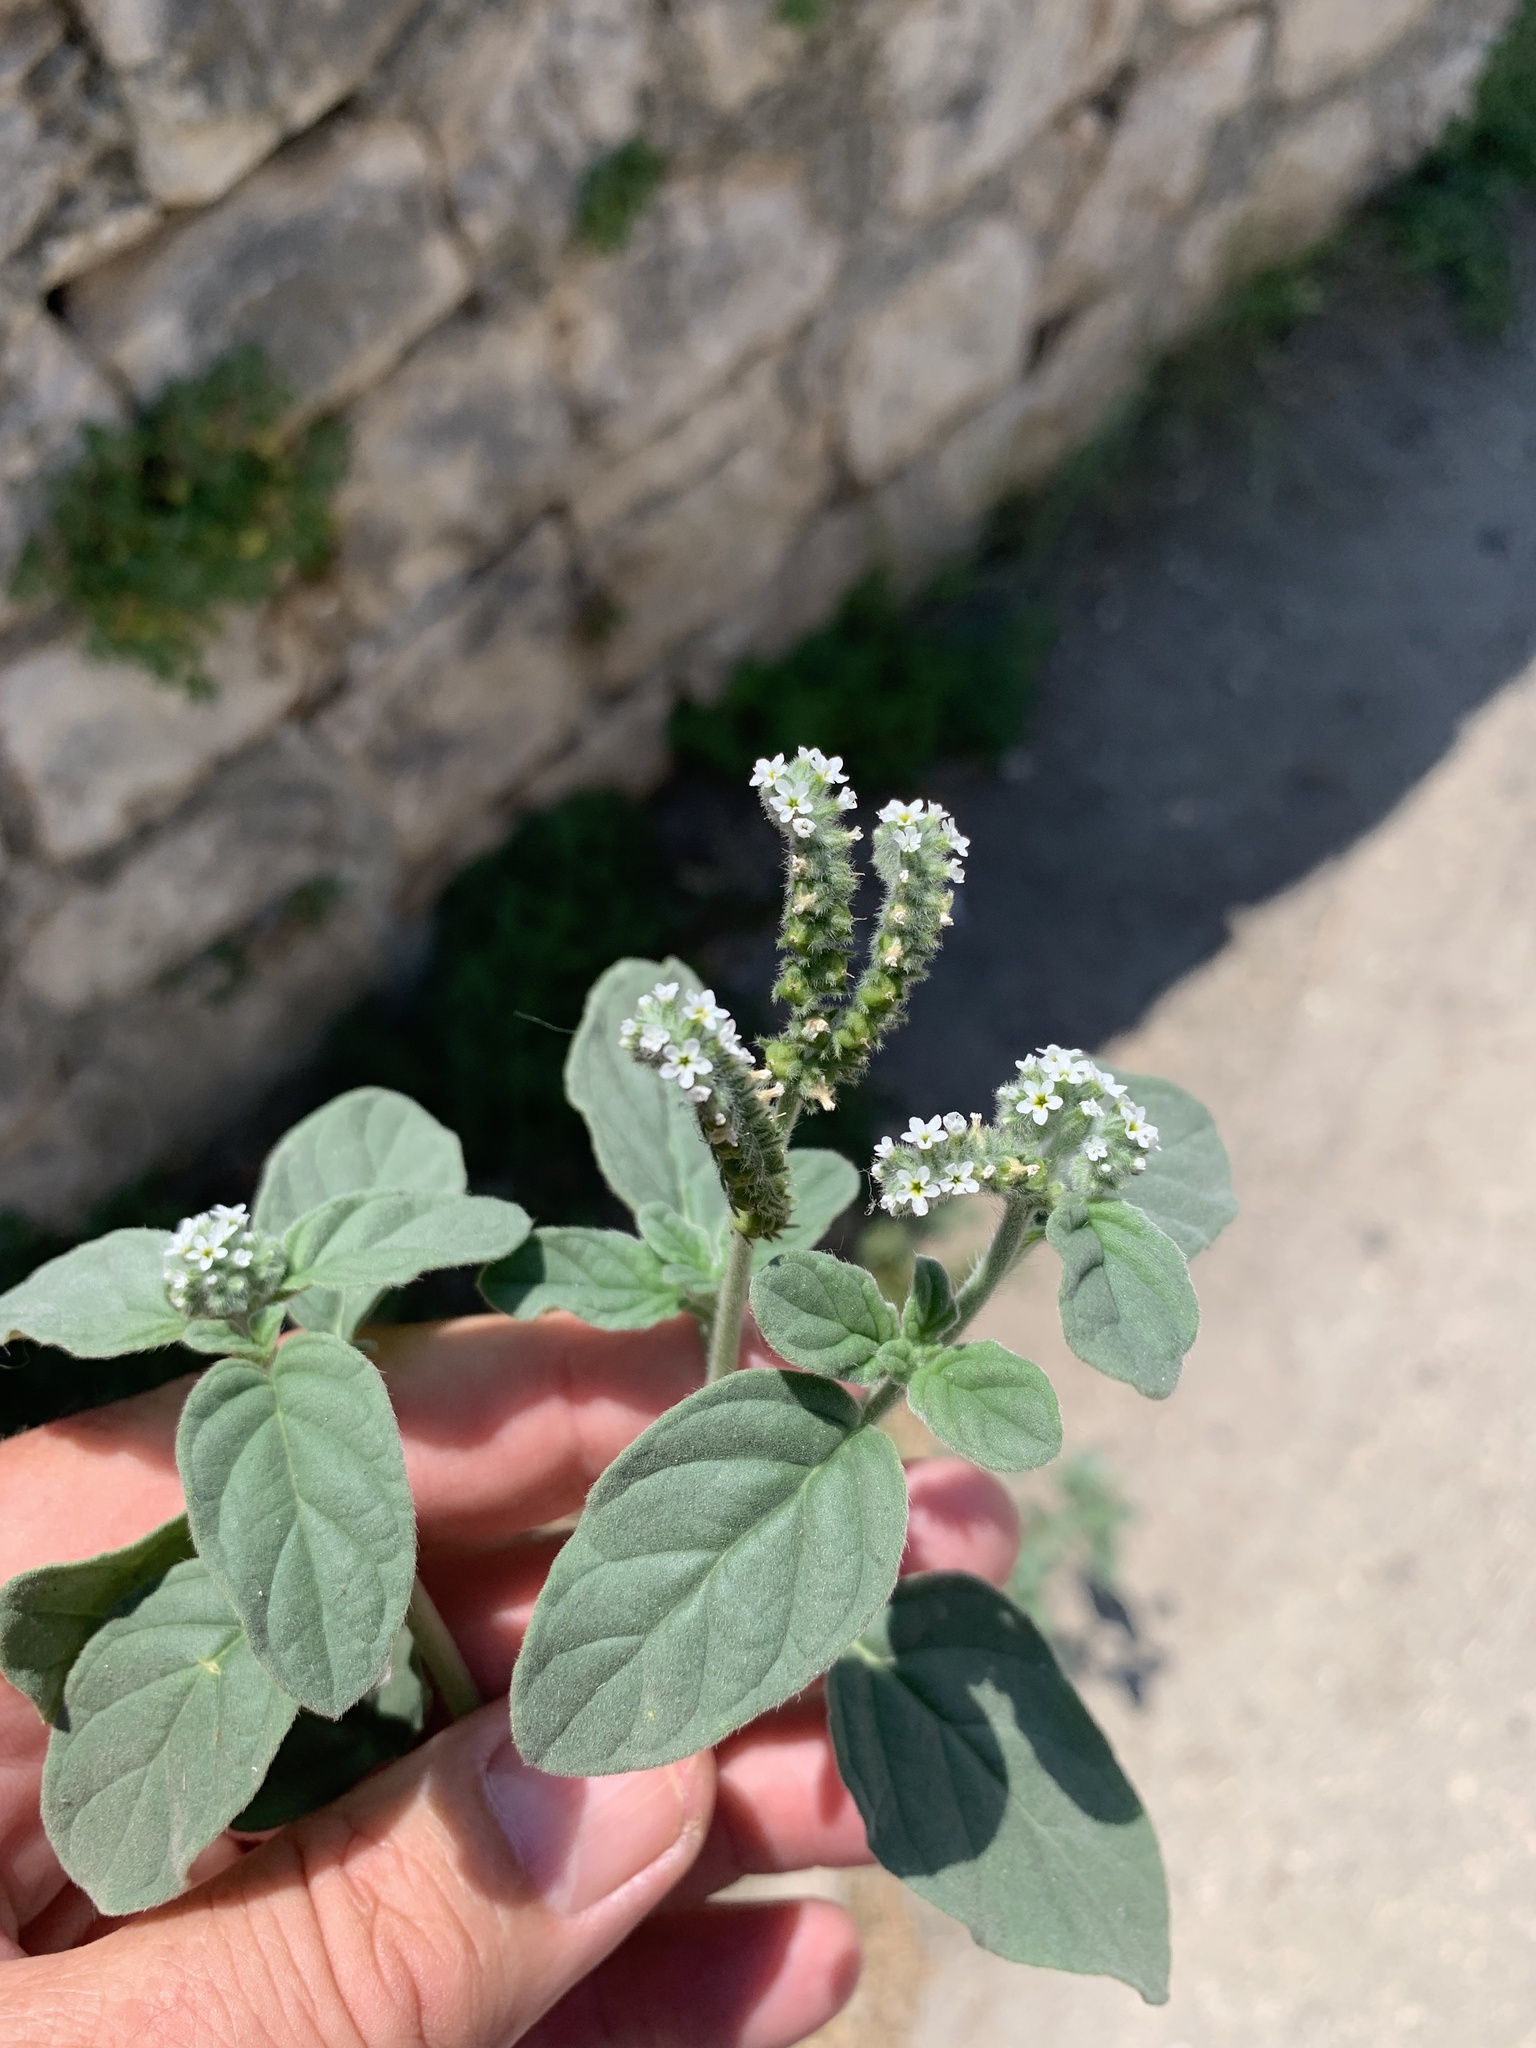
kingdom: Plantae
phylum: Tracheophyta
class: Magnoliopsida
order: Boraginales
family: Heliotropiaceae
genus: Heliotropium
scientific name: Heliotropium europaeum
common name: European heliotrope
